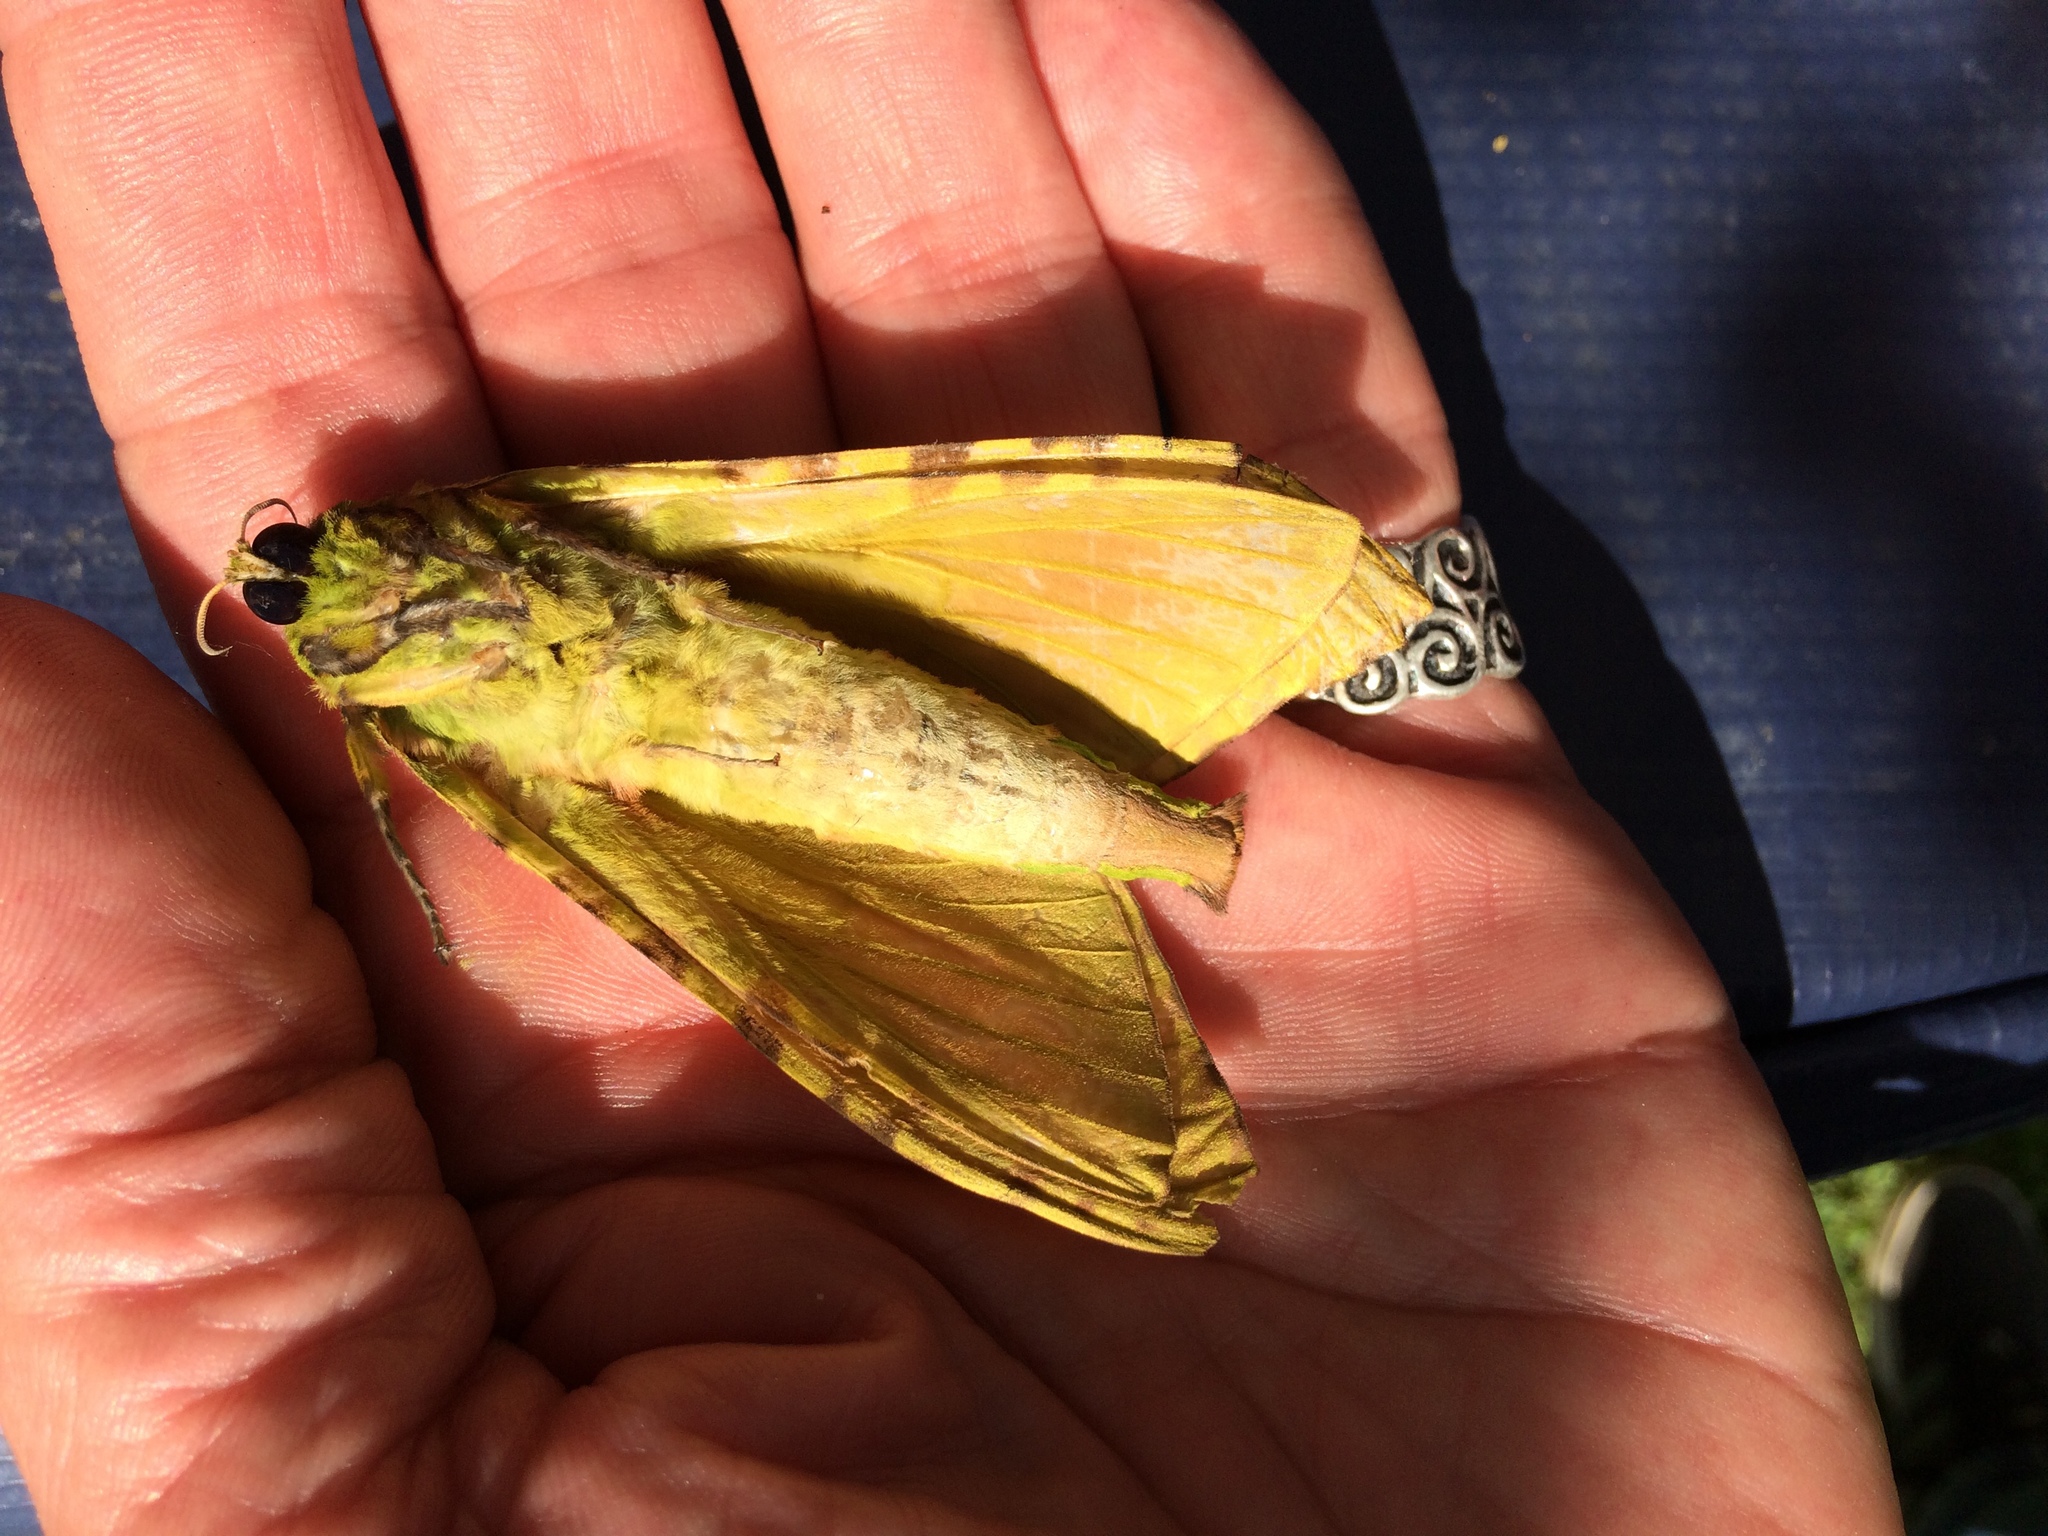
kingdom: Animalia
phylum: Arthropoda
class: Insecta
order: Lepidoptera
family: Hepialidae
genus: Aenetus
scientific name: Aenetus virescens
